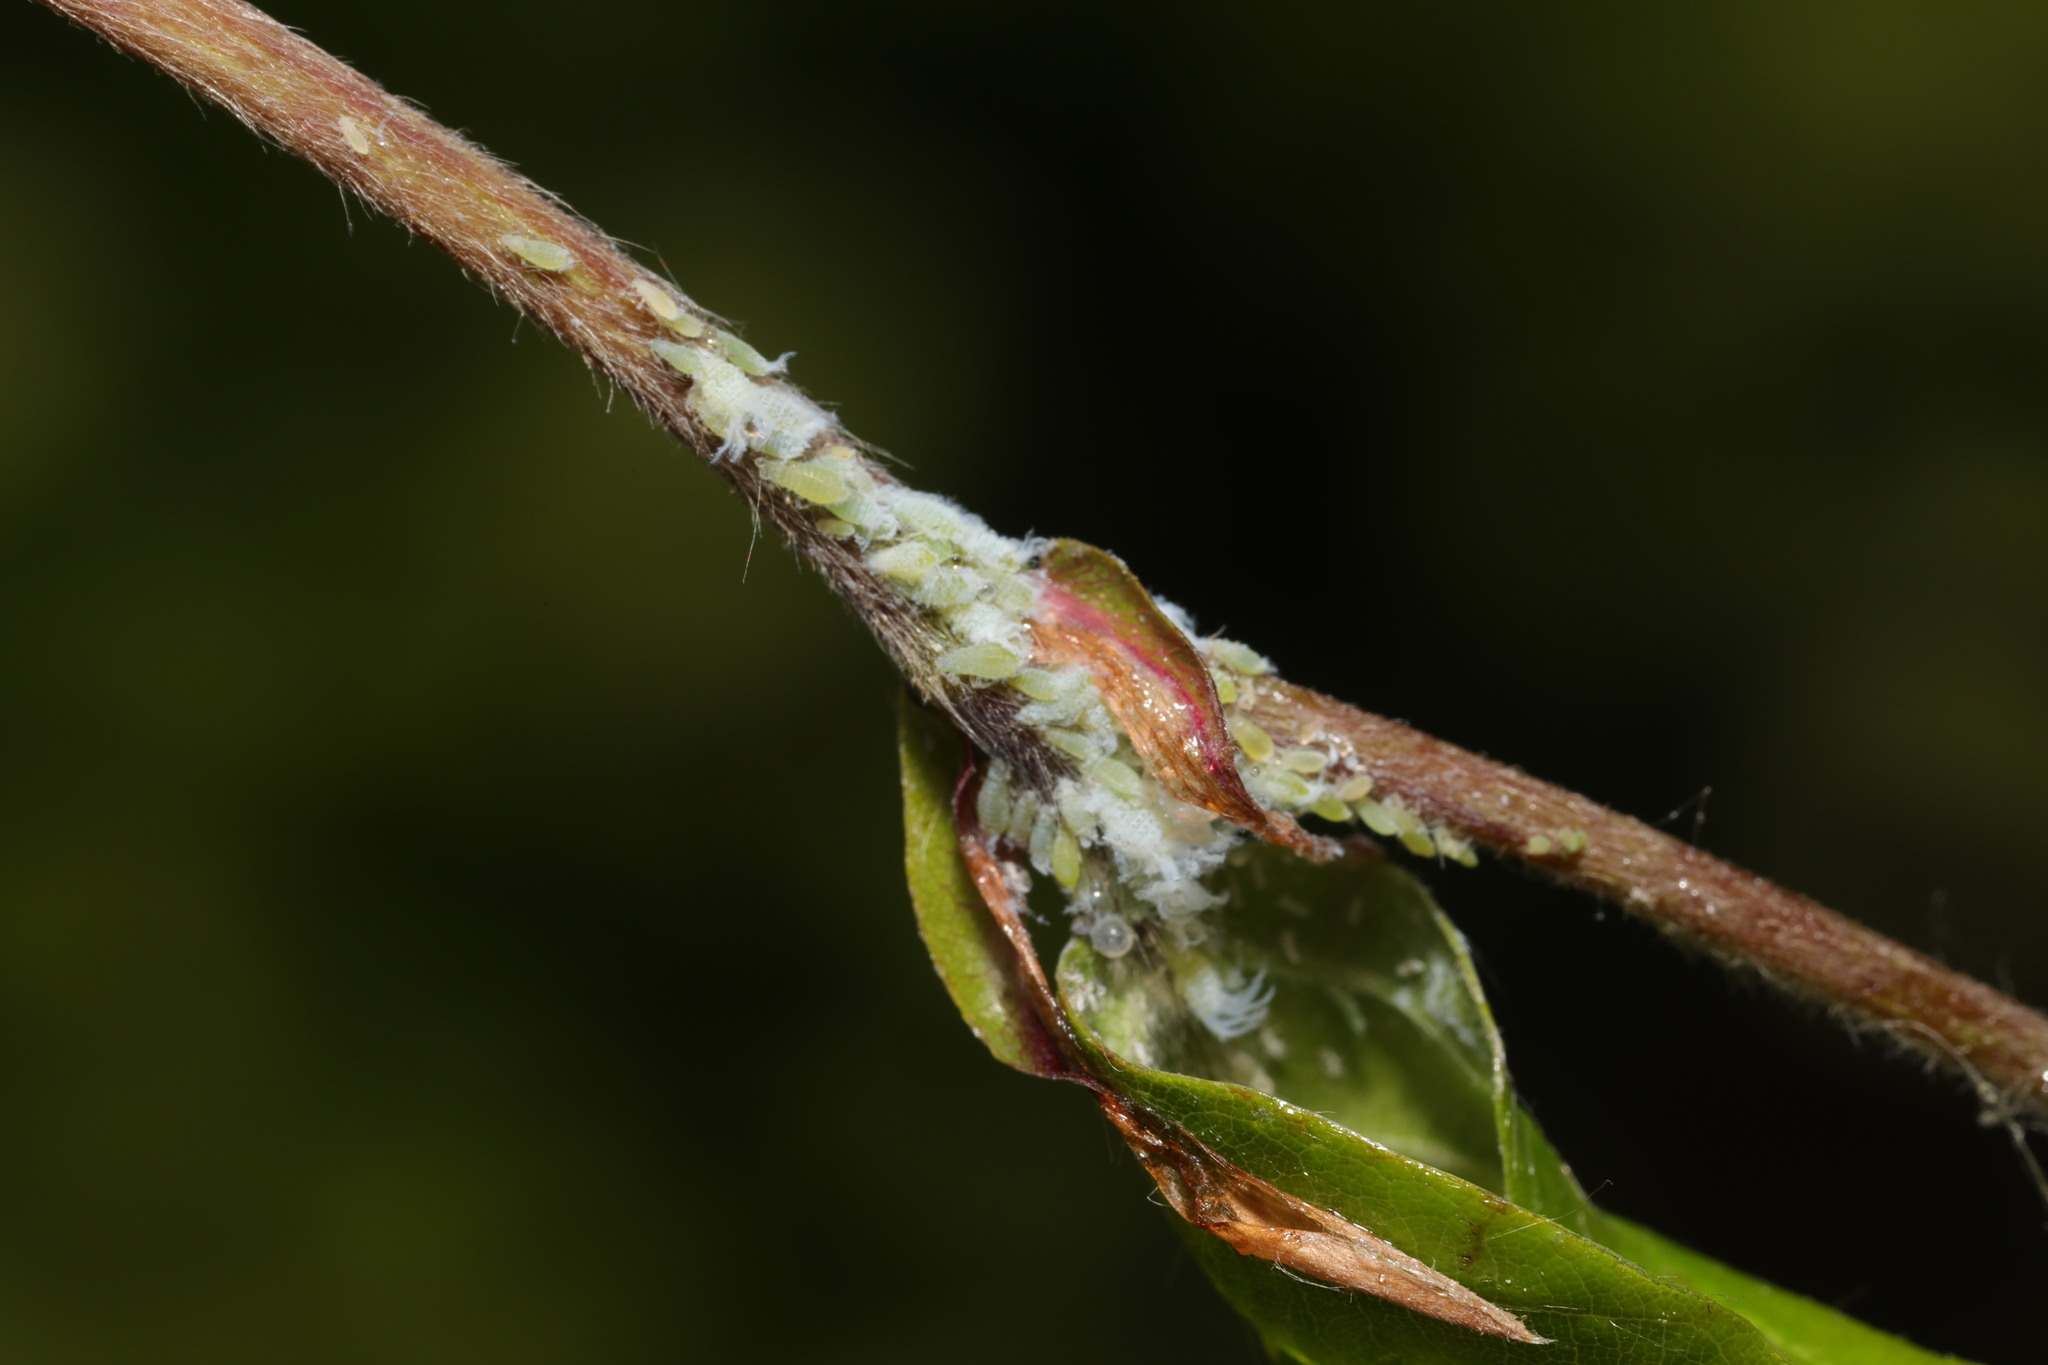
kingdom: Animalia
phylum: Arthropoda
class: Insecta
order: Hemiptera
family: Aphididae
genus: Phyllaphis
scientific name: Phyllaphis fagi
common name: Beech aphid
